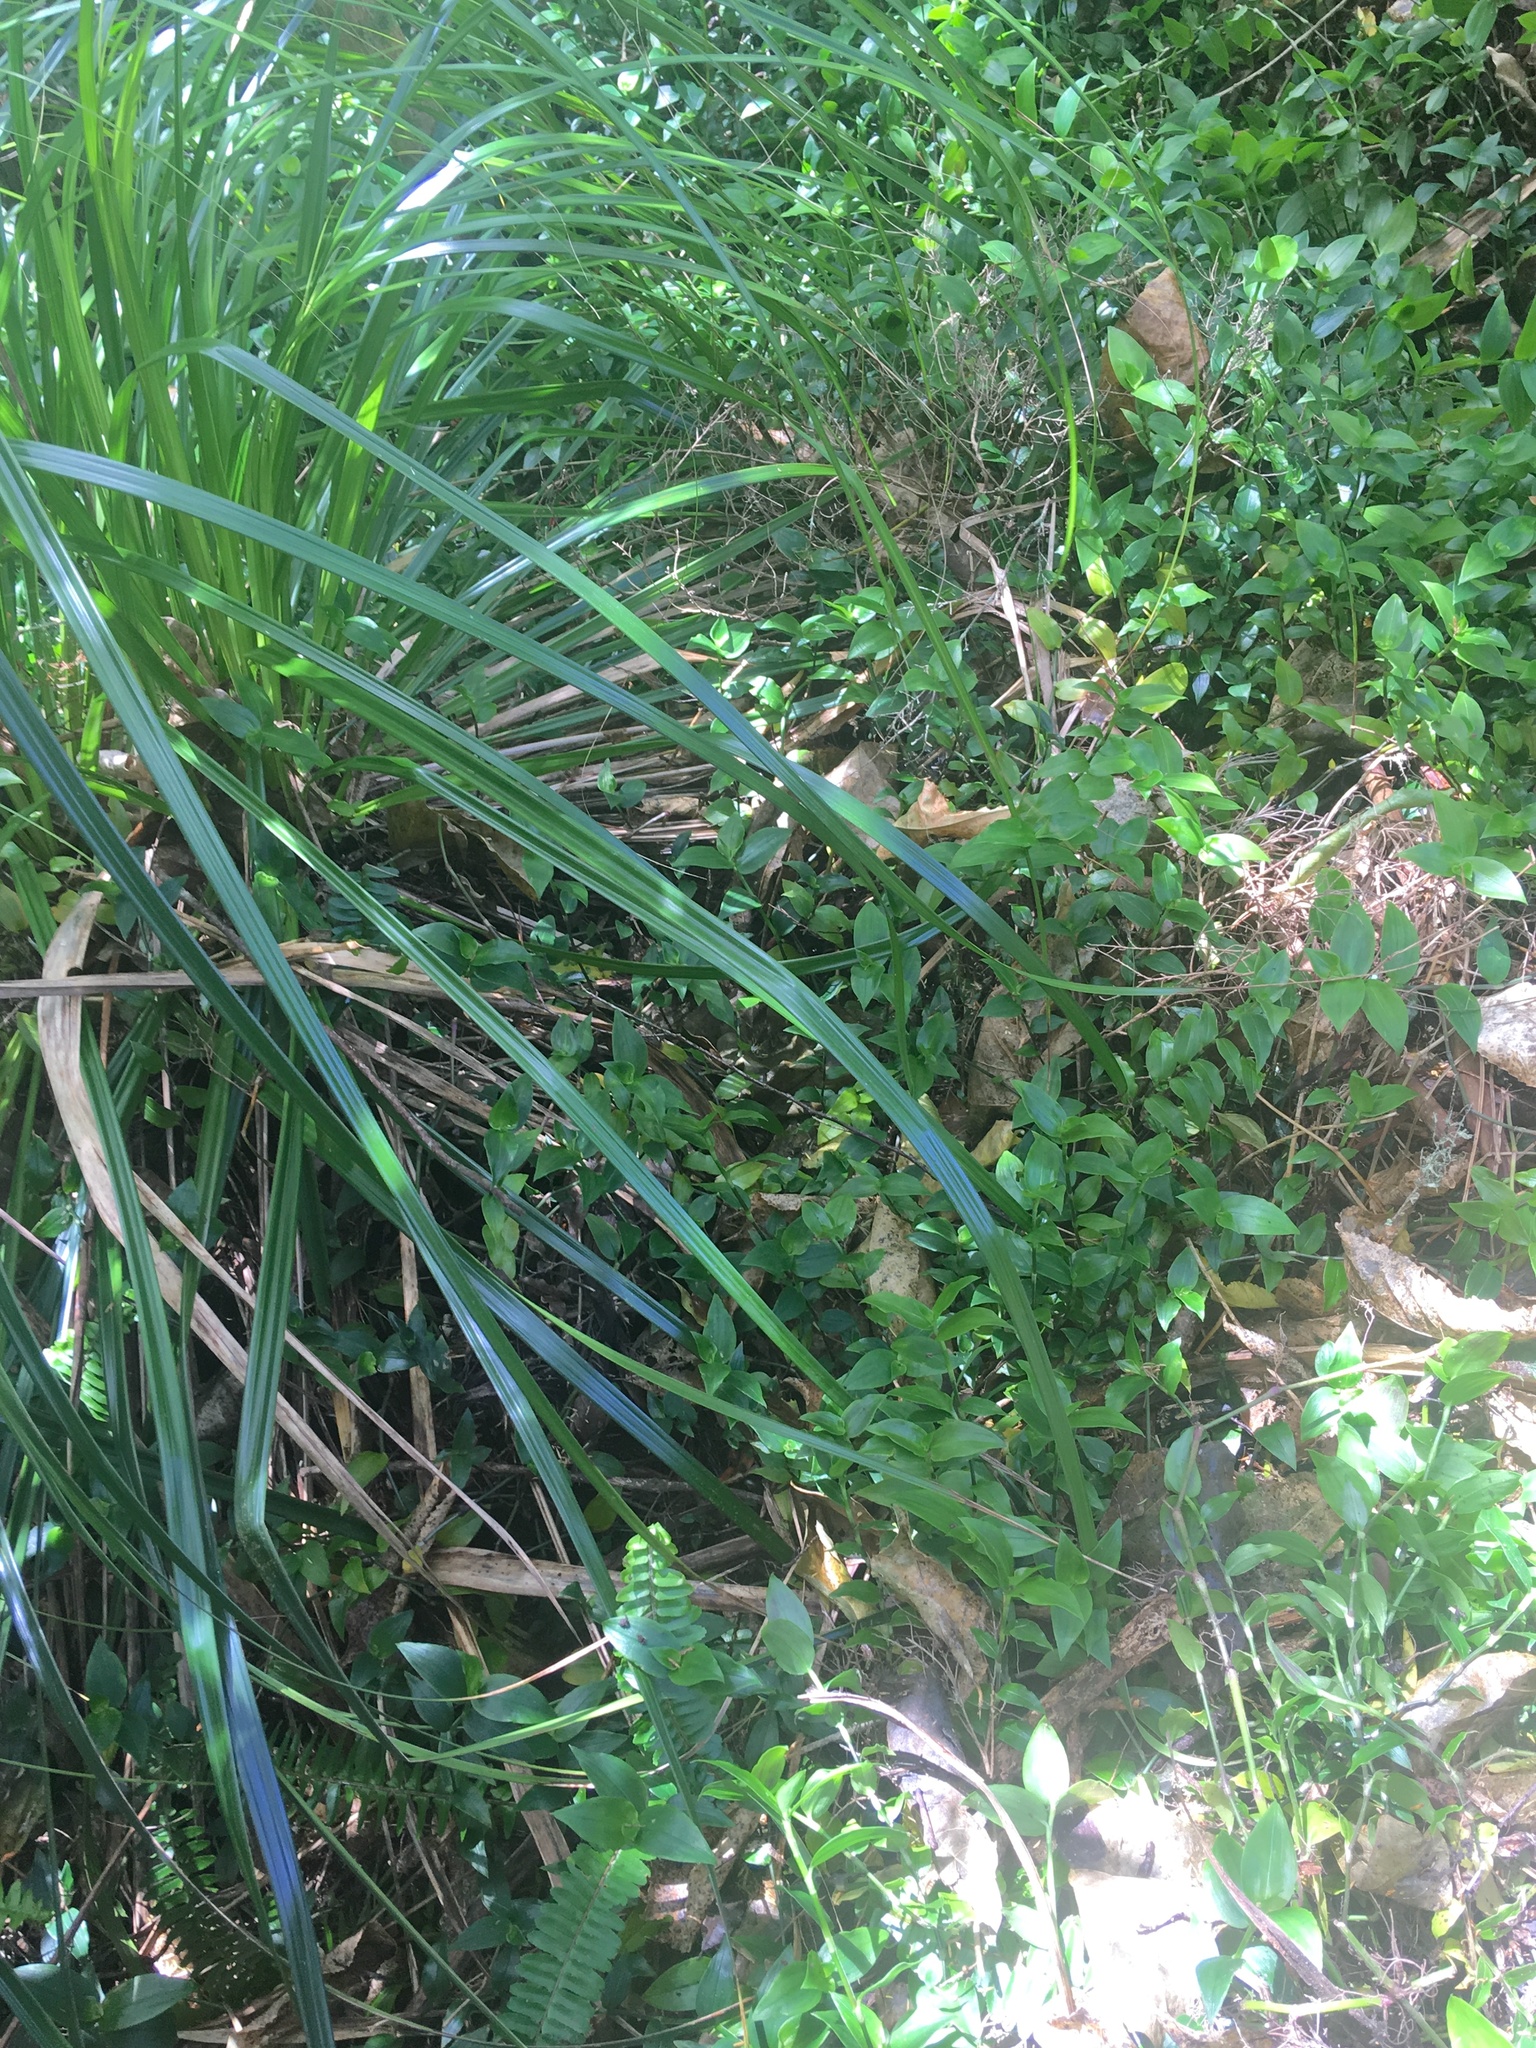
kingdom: Plantae
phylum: Tracheophyta
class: Liliopsida
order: Commelinales
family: Commelinaceae
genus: Tradescantia
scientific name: Tradescantia fluminensis
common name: Wandering-jew
